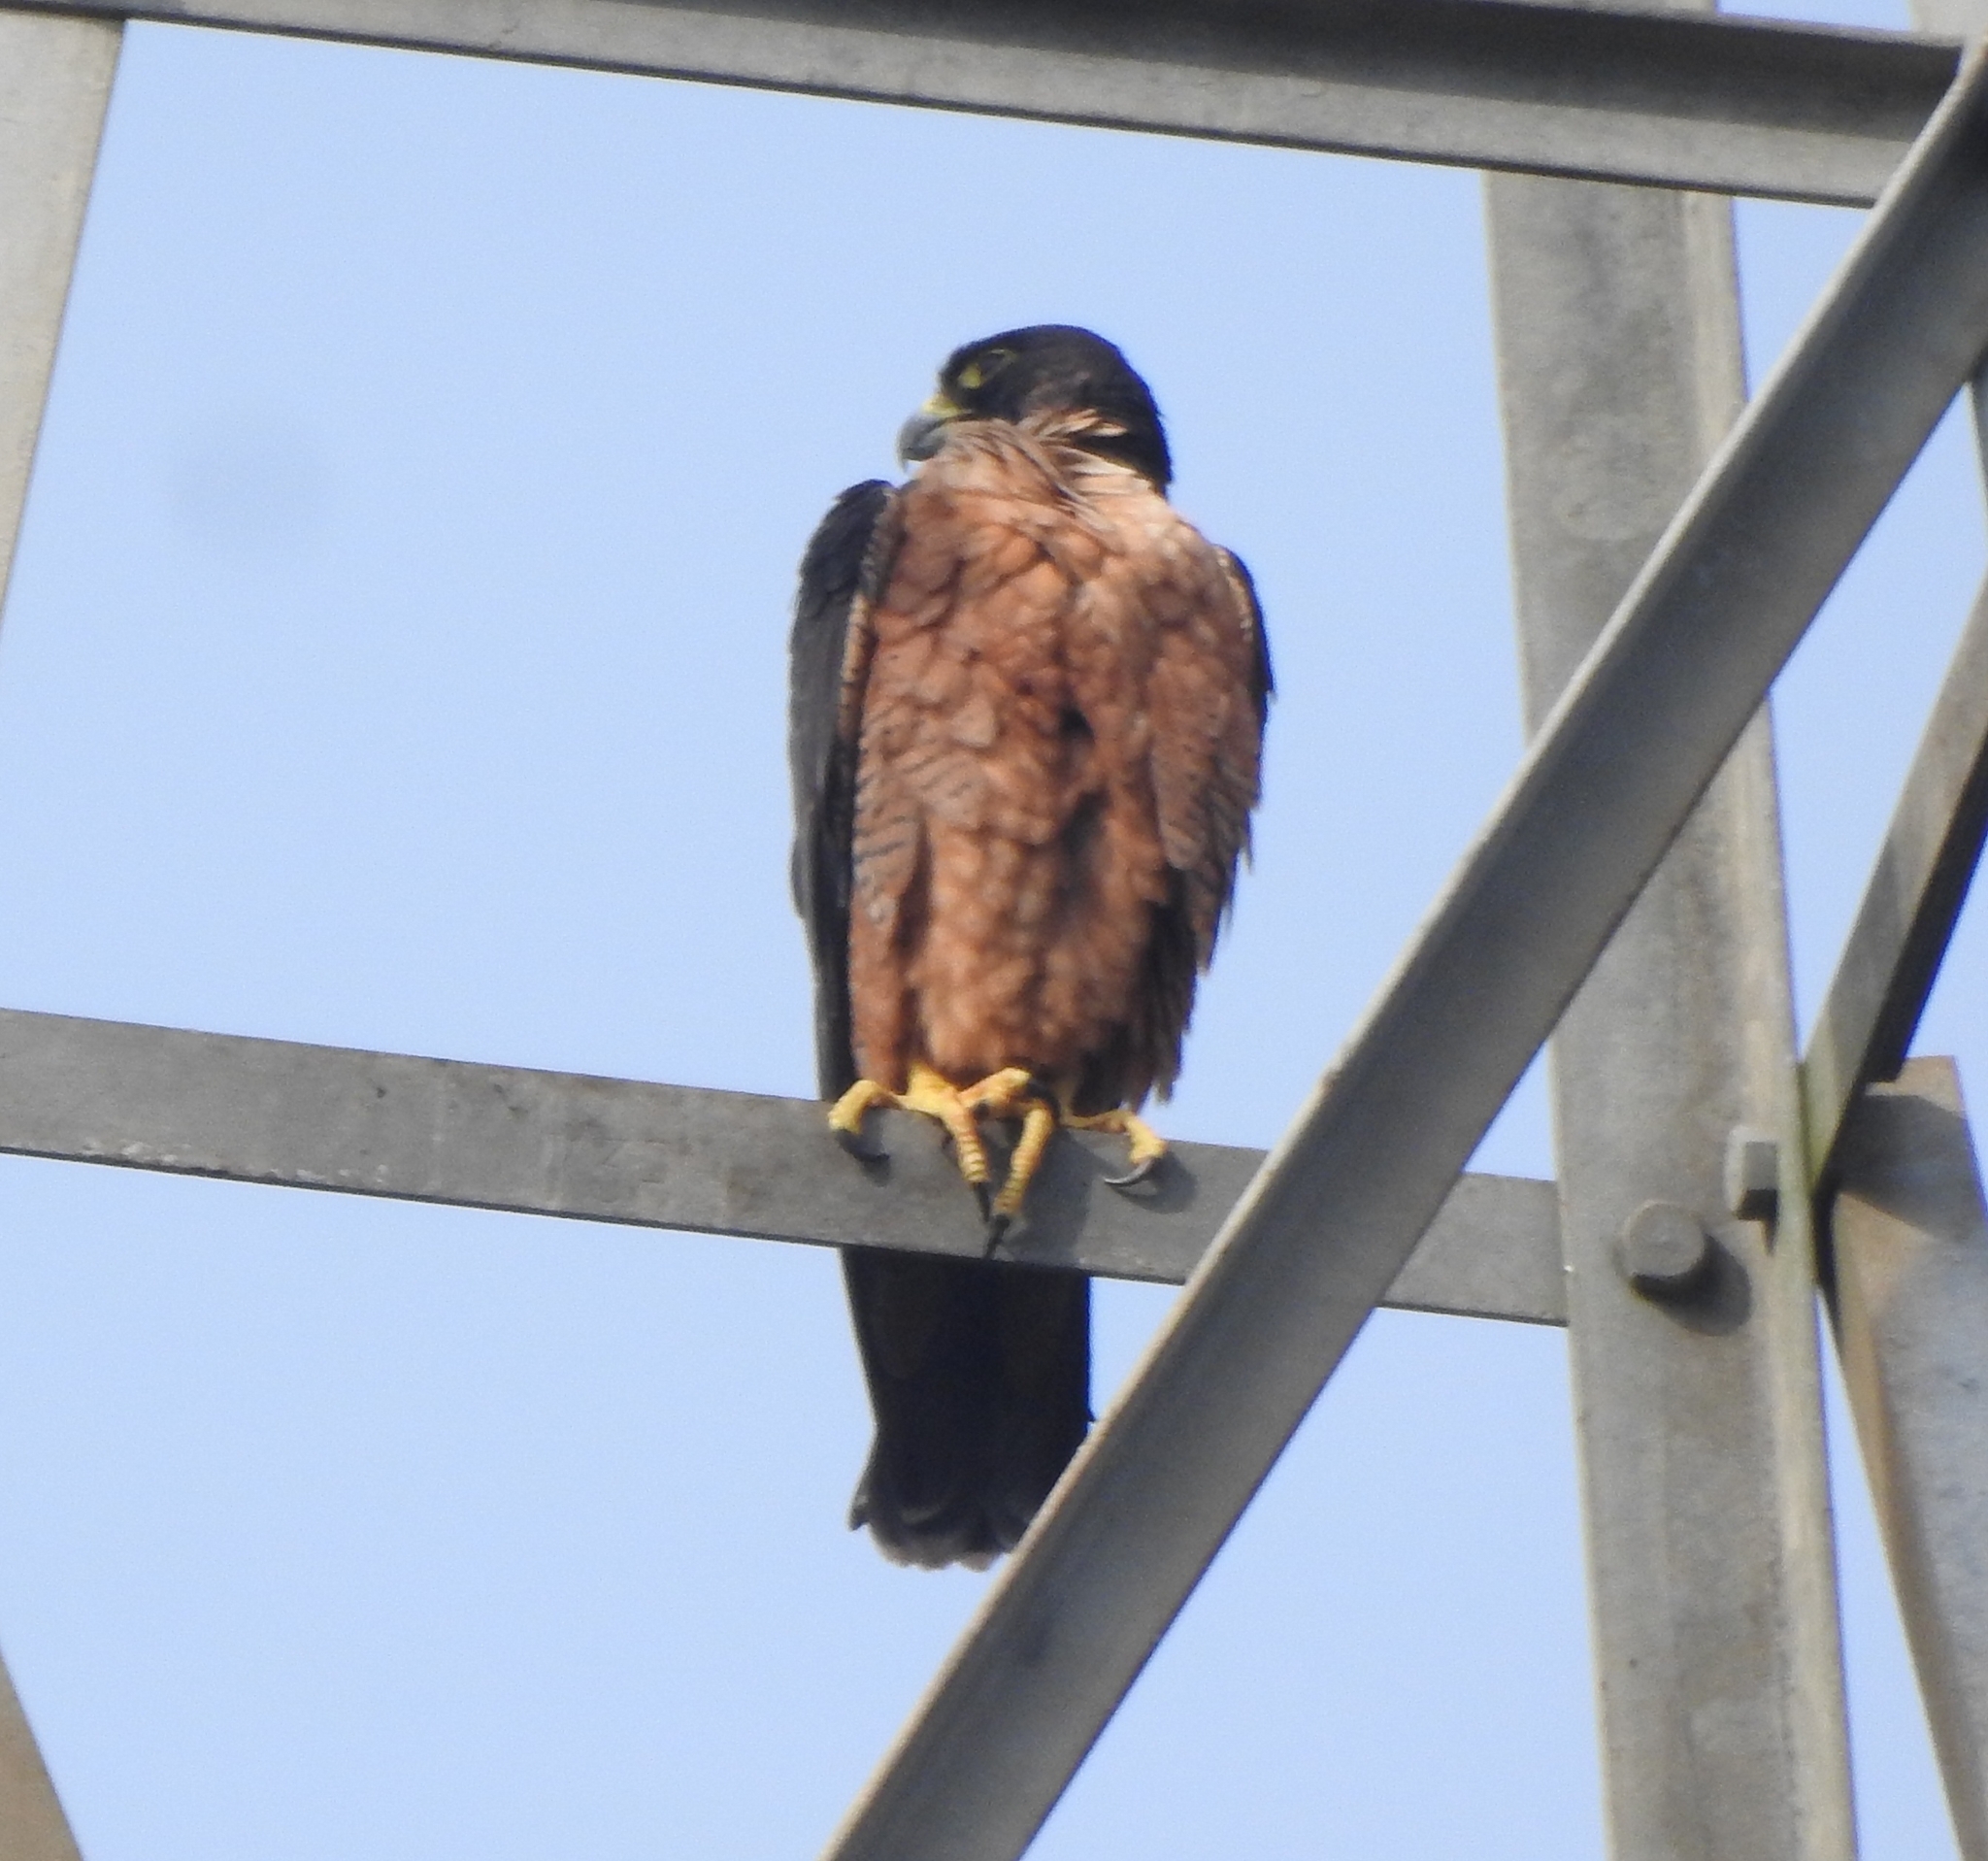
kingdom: Animalia
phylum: Chordata
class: Aves
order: Falconiformes
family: Falconidae
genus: Falco
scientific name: Falco peregrinus
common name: Peregrine falcon
